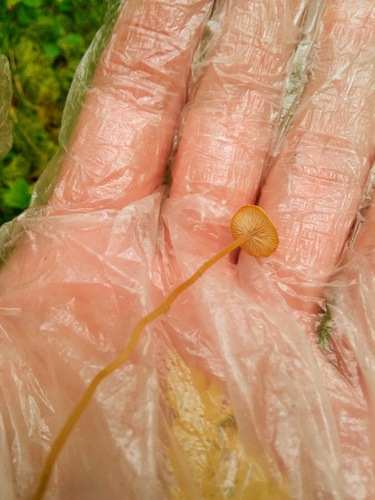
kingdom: Fungi
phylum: Basidiomycota
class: Agaricomycetes
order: Agaricales
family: Physalacriaceae
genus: Strobilurus
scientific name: Strobilurus
